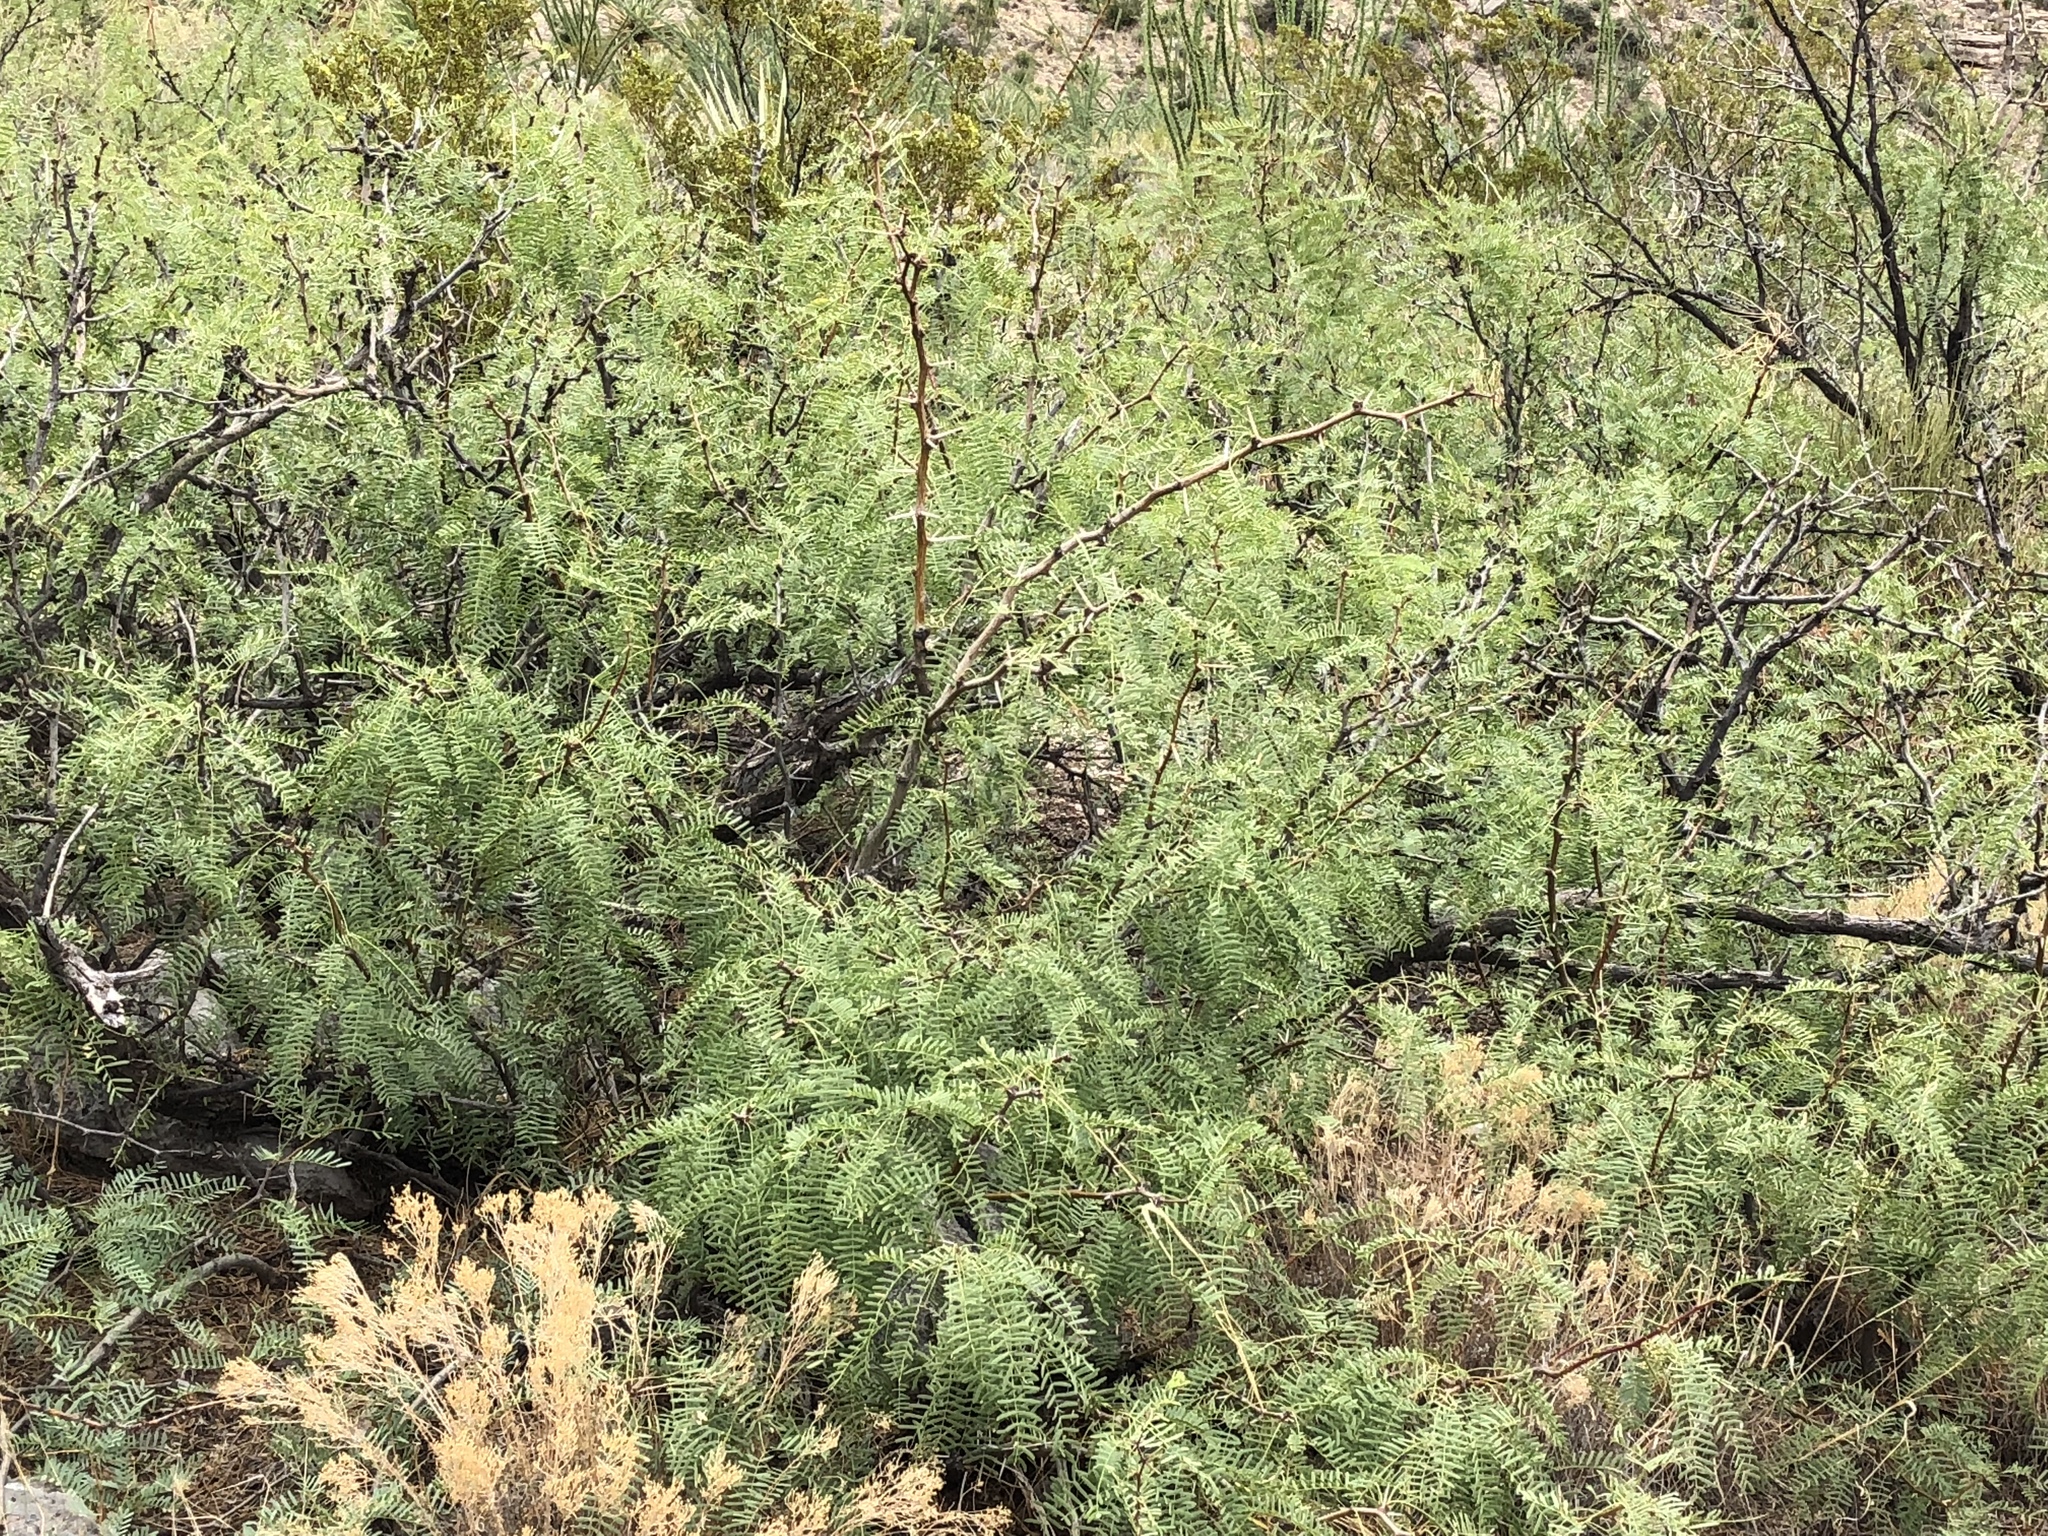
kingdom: Plantae
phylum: Tracheophyta
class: Magnoliopsida
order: Fabales
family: Fabaceae
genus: Prosopis
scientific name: Prosopis glandulosa
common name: Honey mesquite
